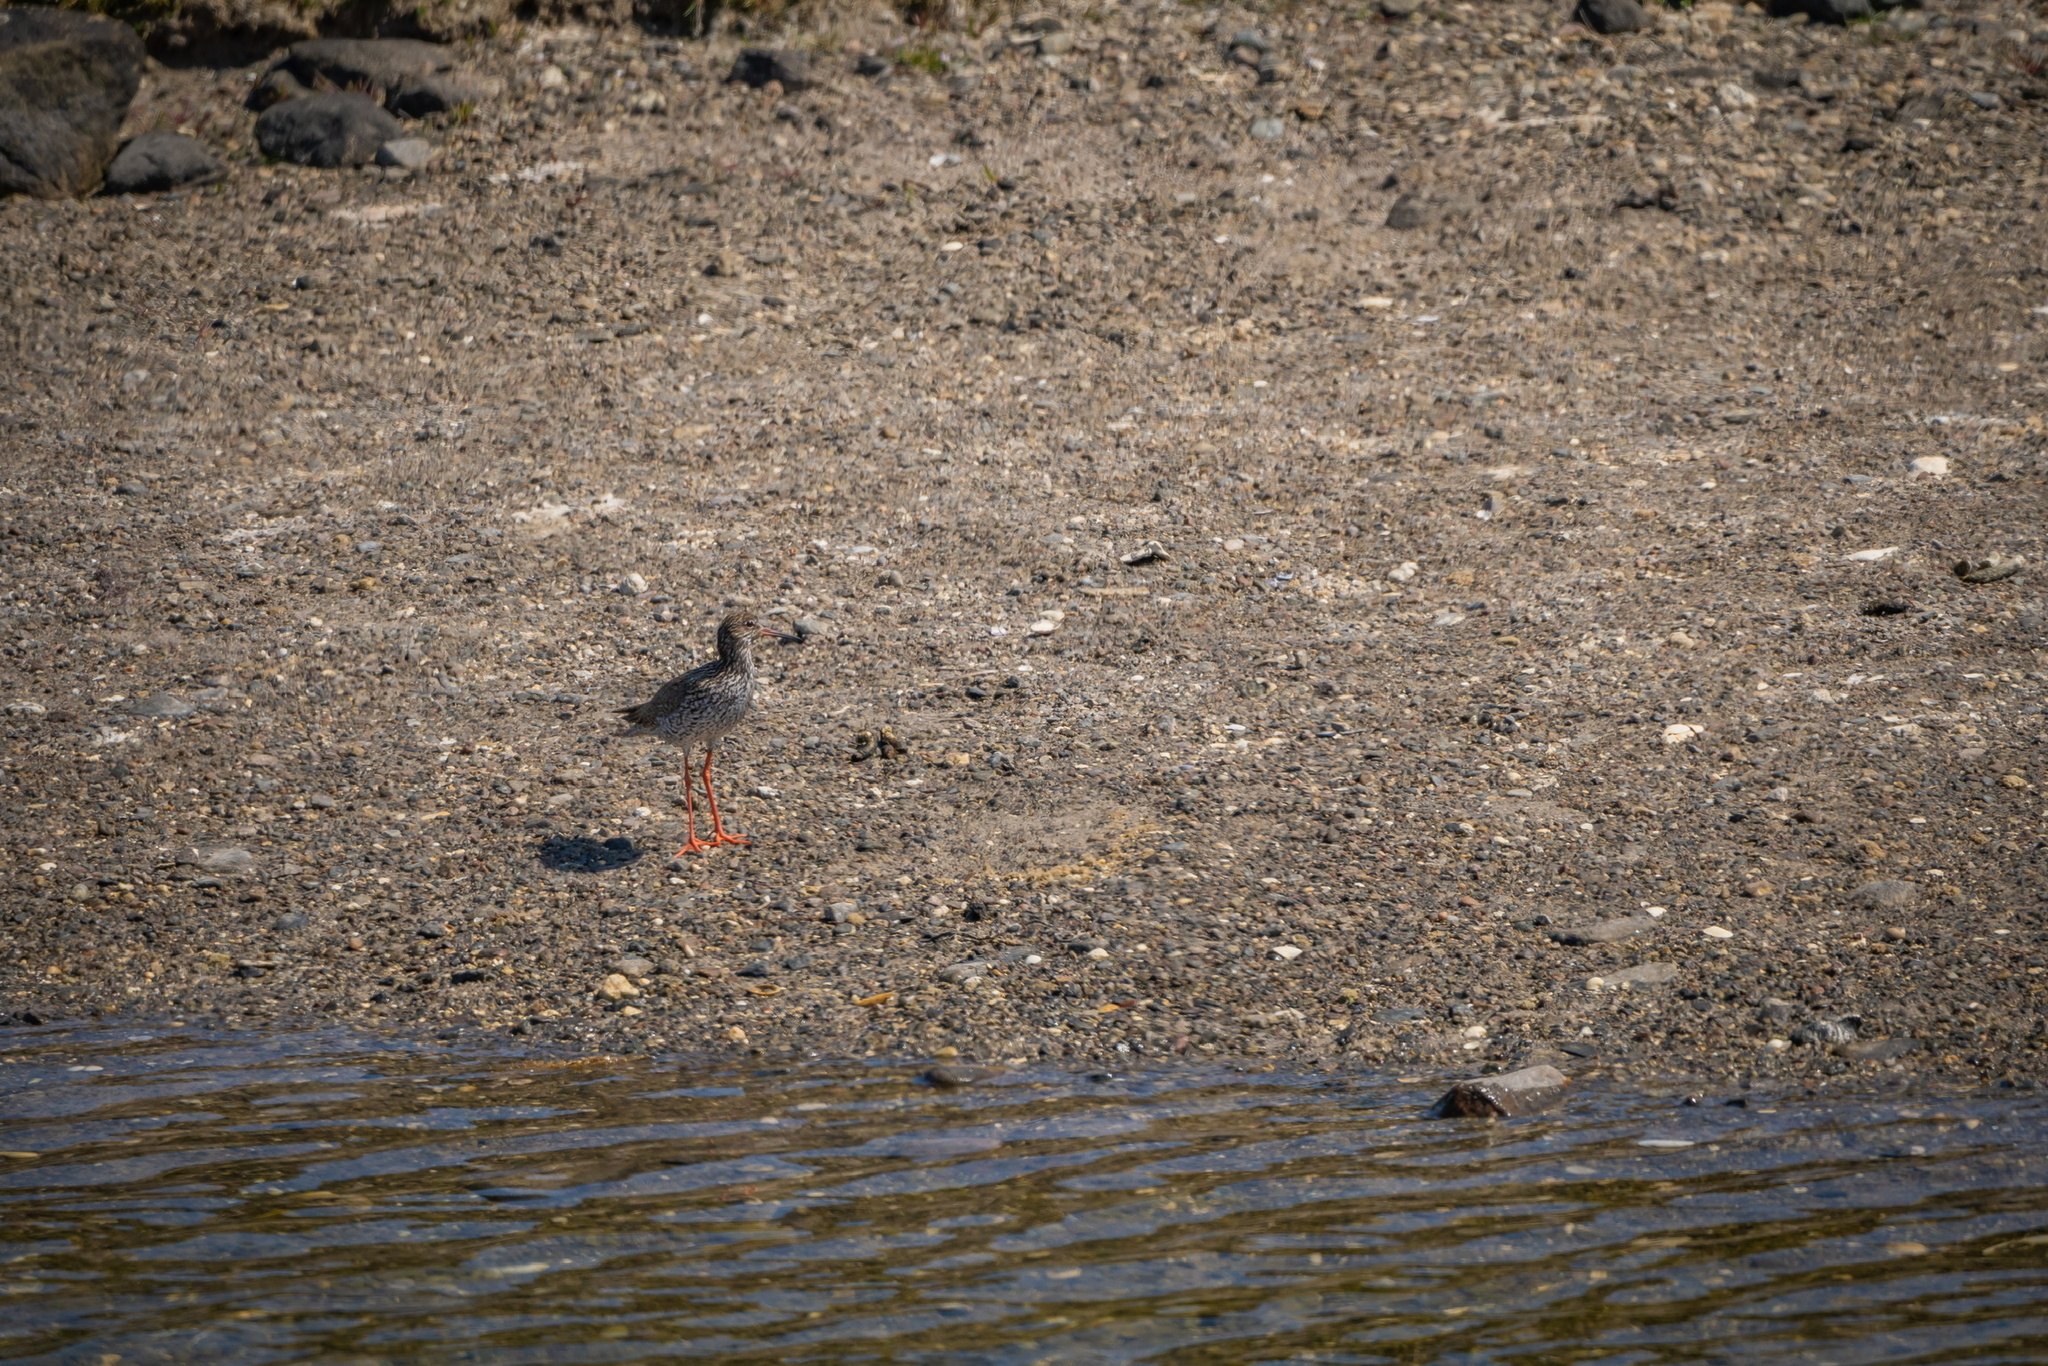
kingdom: Animalia
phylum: Chordata
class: Aves
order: Charadriiformes
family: Scolopacidae
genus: Tringa
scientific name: Tringa totanus
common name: Common redshank
